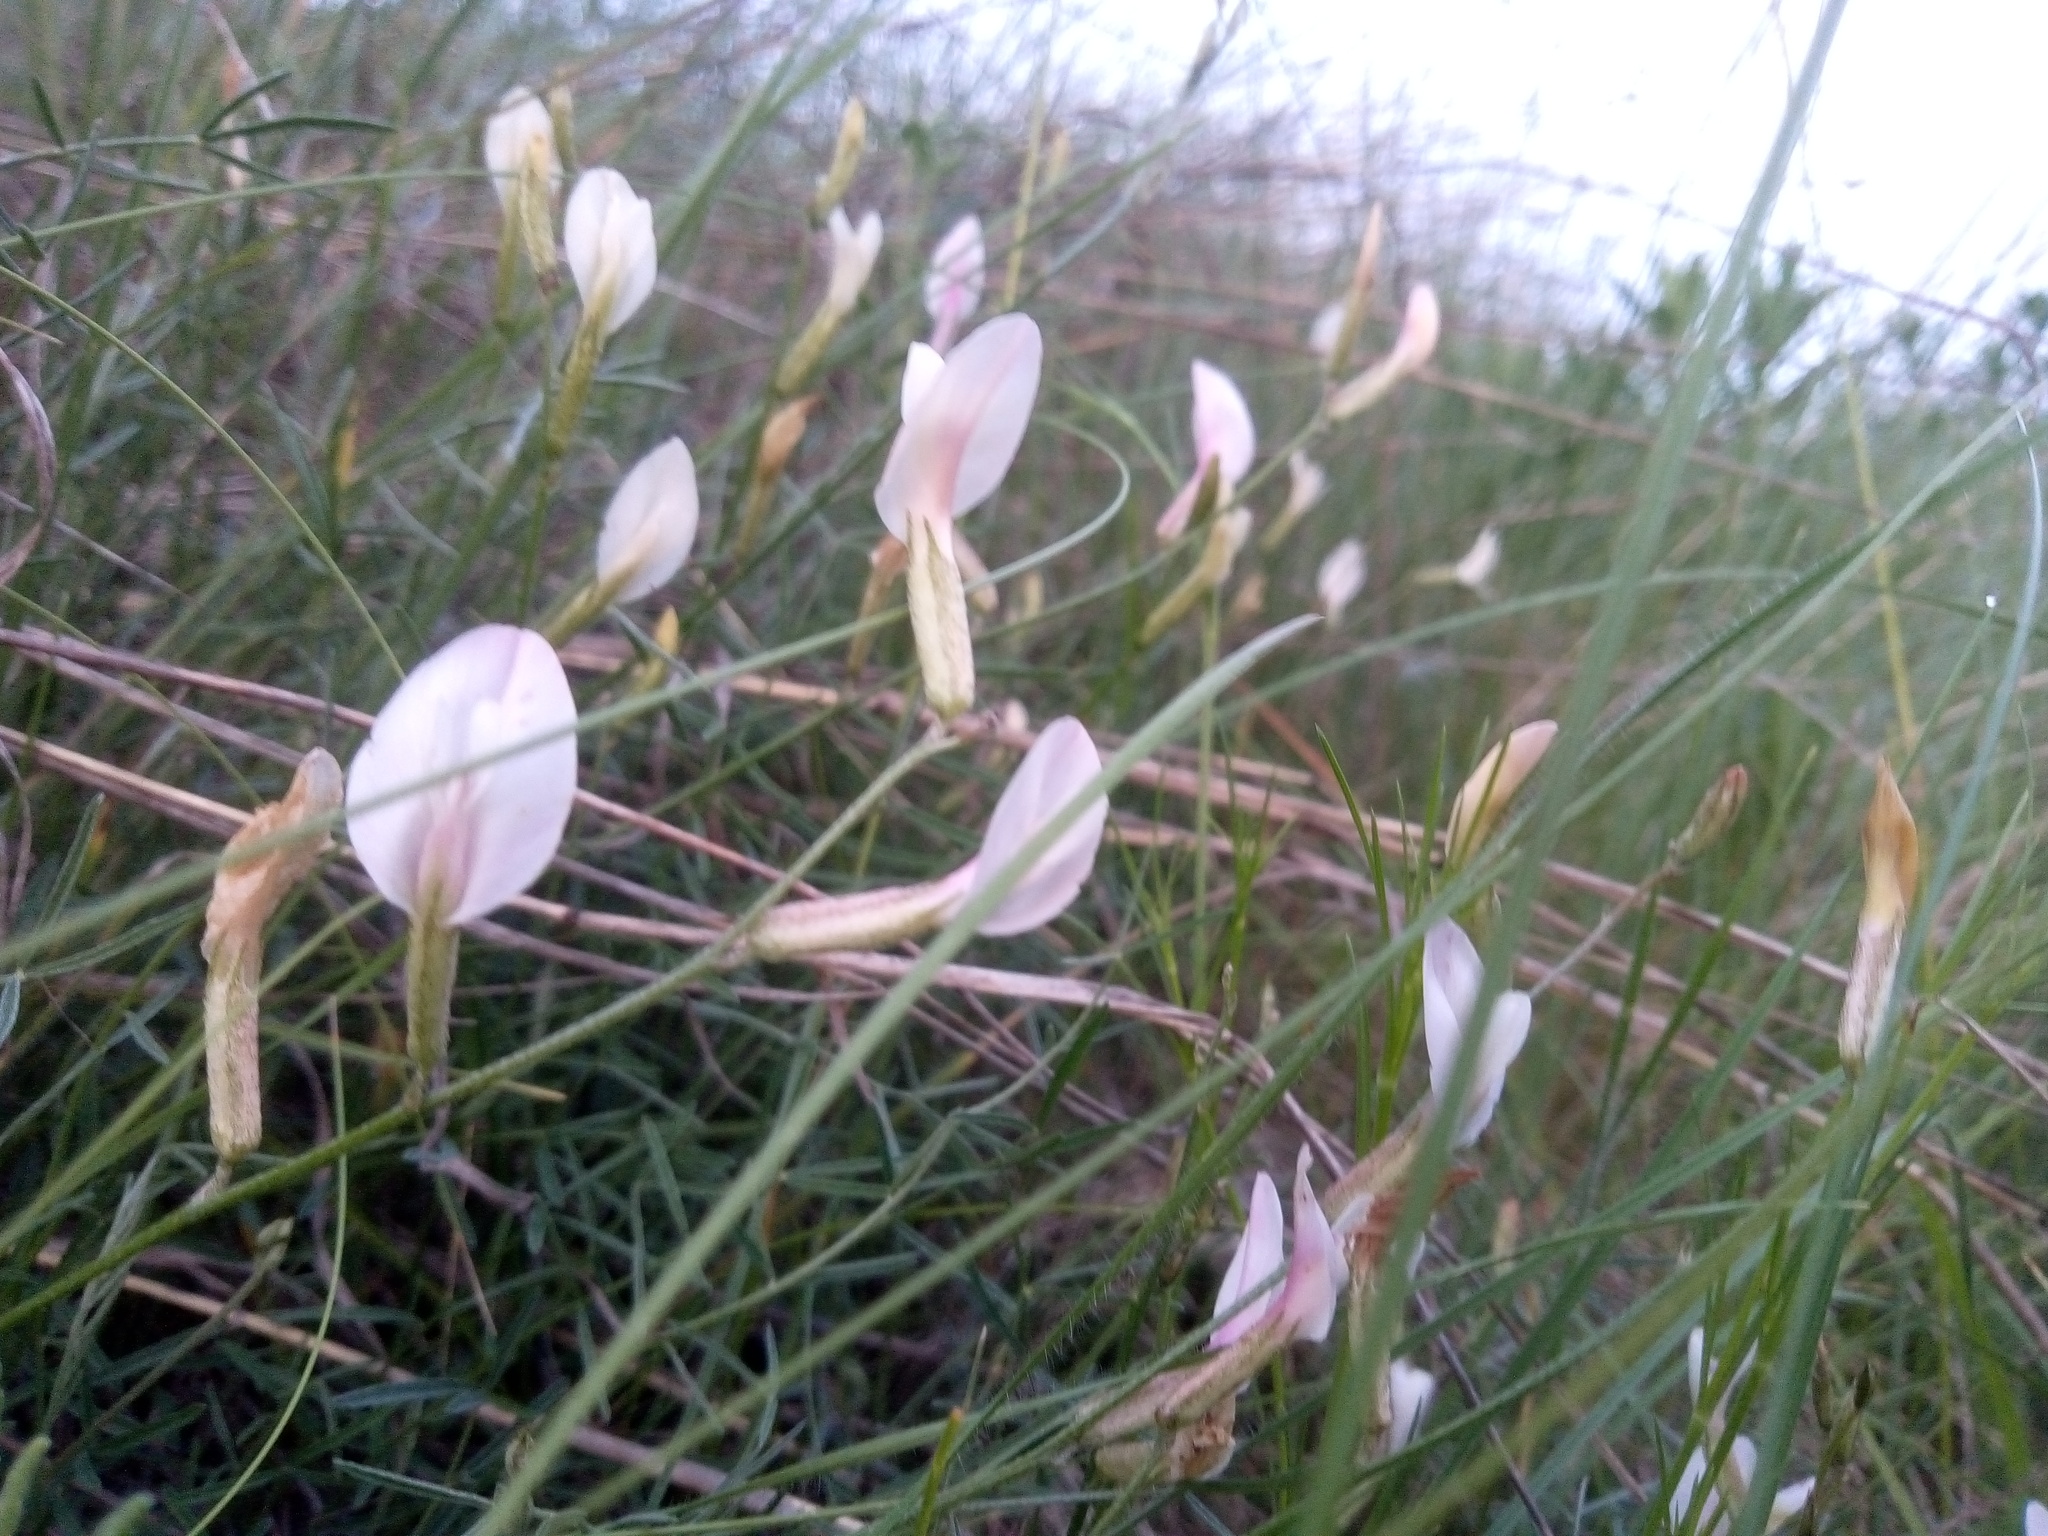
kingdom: Plantae
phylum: Tracheophyta
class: Magnoliopsida
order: Fabales
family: Fabaceae
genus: Astragalus
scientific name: Astragalus ucrainicus
